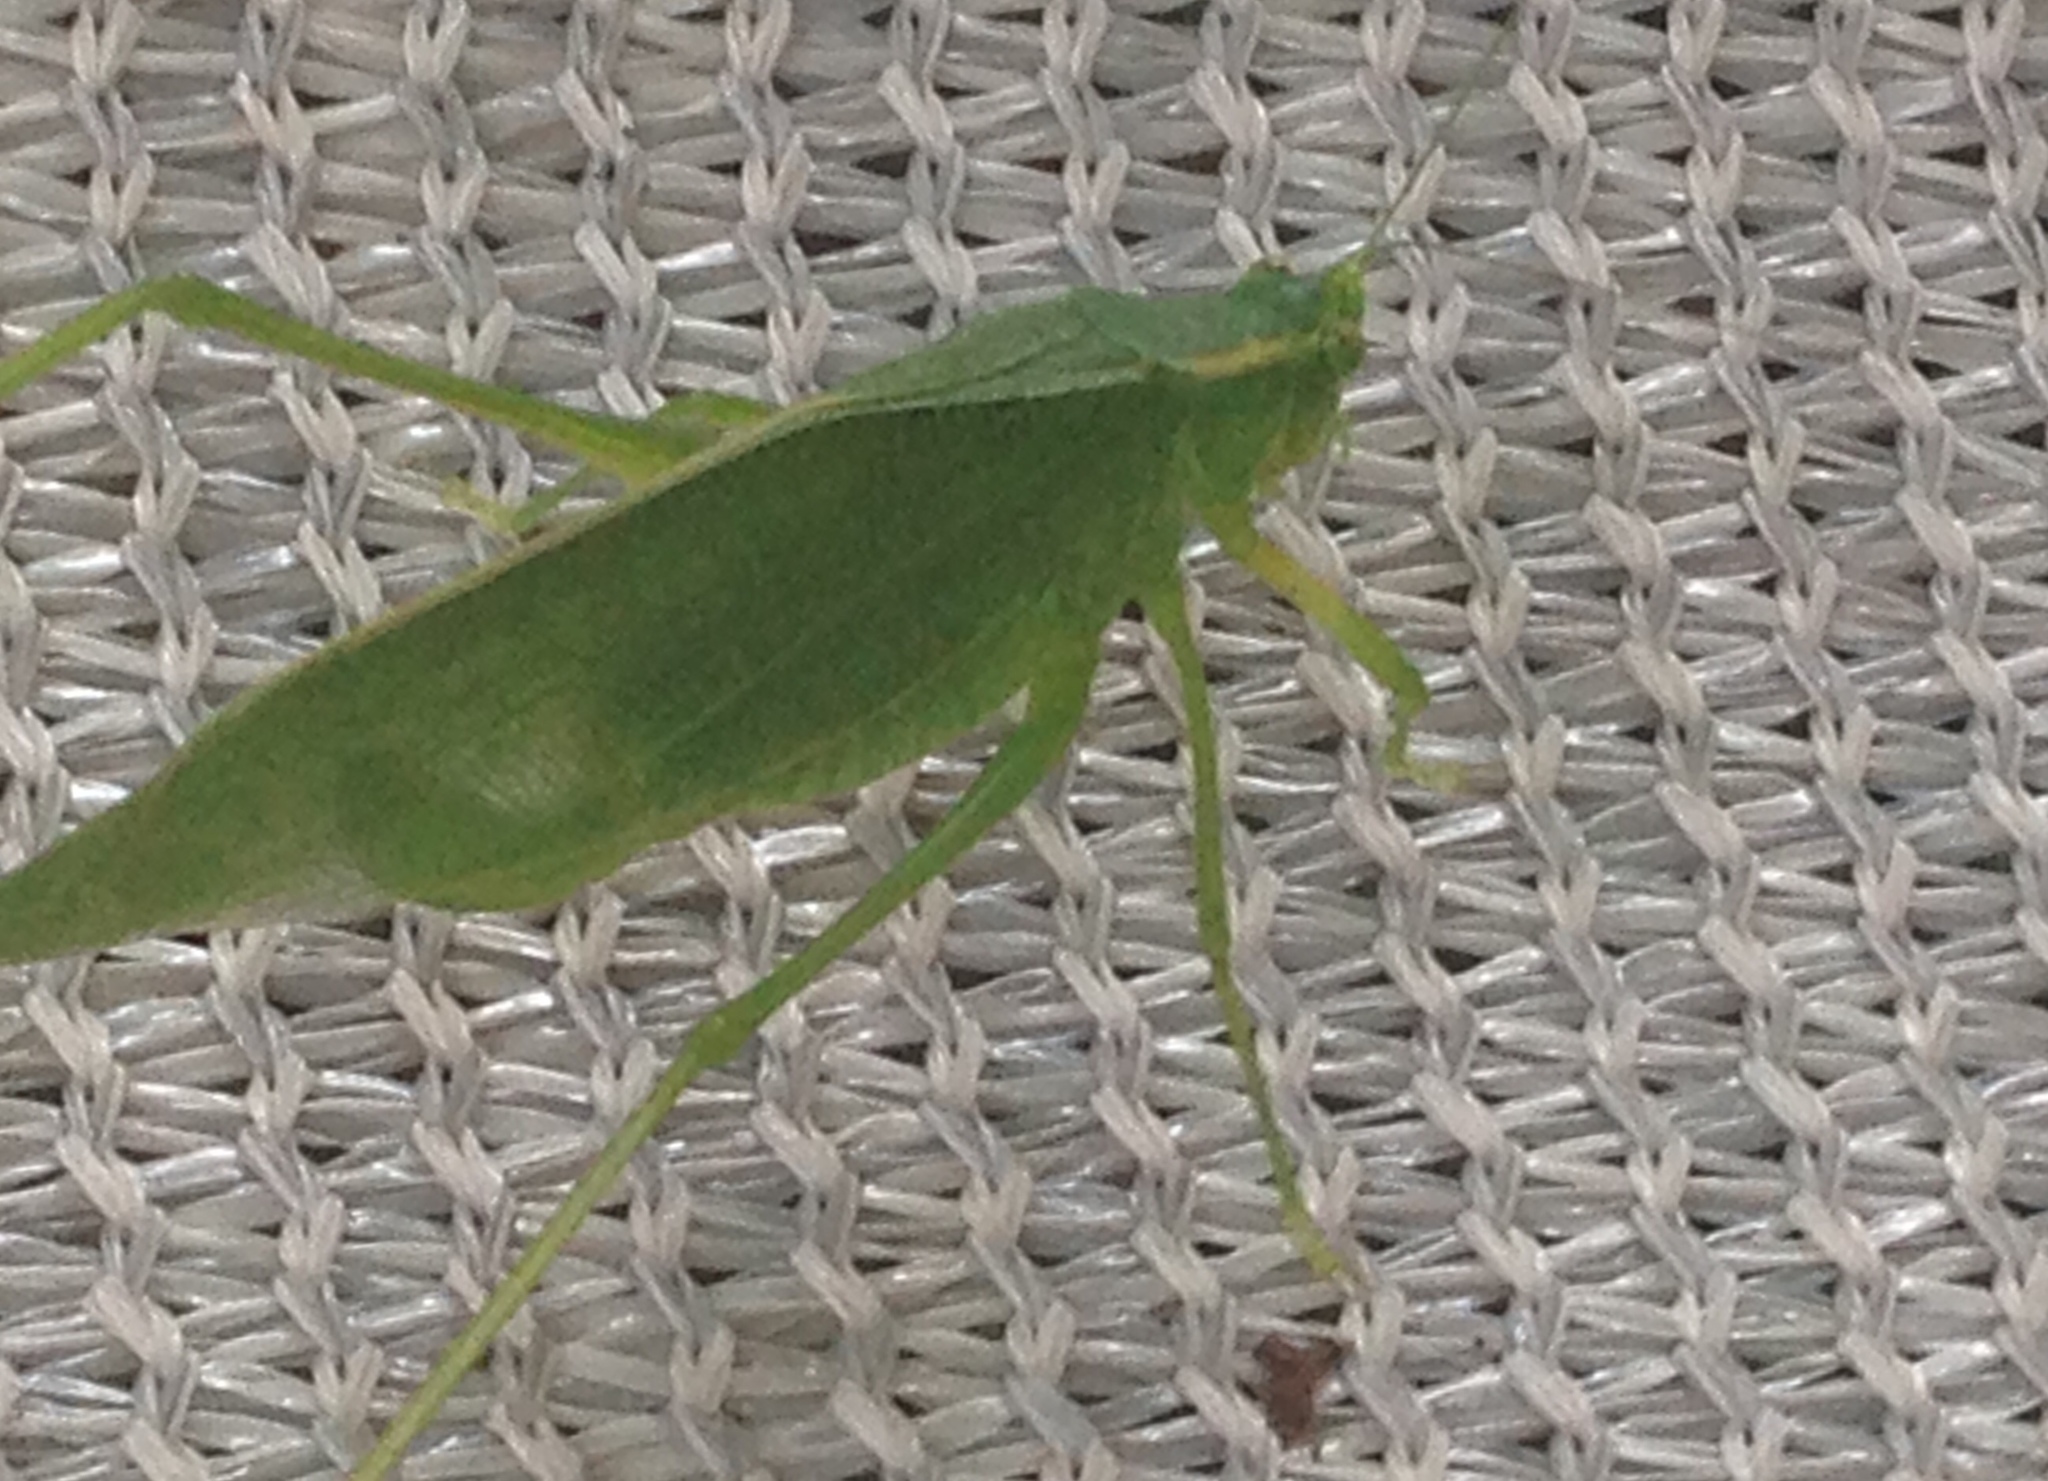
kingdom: Animalia
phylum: Arthropoda
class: Insecta
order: Orthoptera
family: Tettigoniidae
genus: Scudderia
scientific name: Scudderia septentrionalis
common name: Northern bush-katydid
